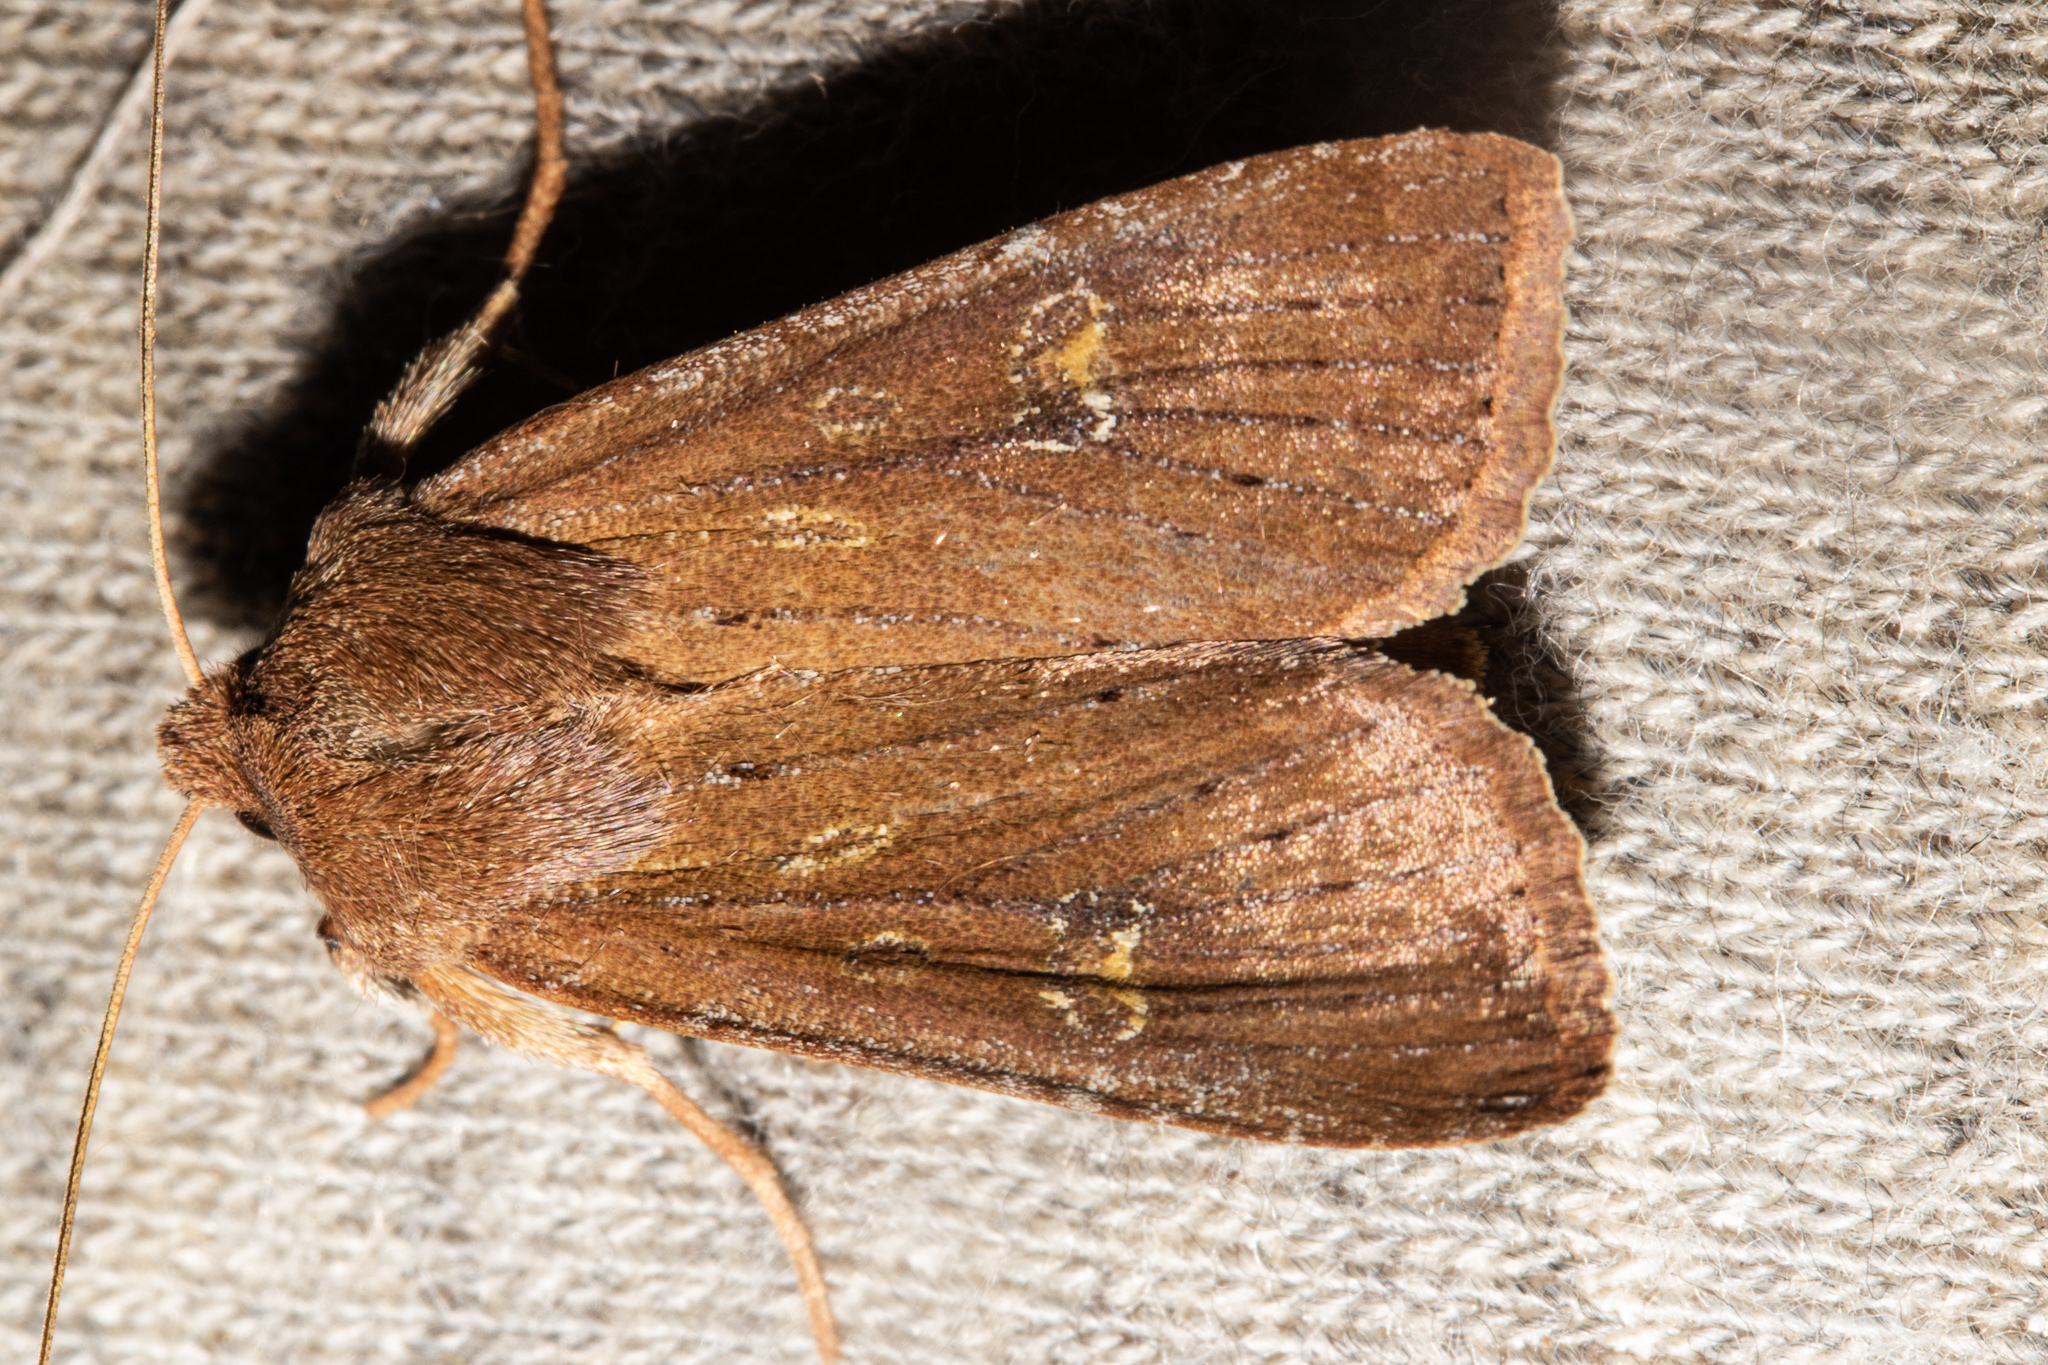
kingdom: Animalia
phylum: Arthropoda
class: Insecta
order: Lepidoptera
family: Noctuidae
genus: Ichneutica
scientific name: Ichneutica
